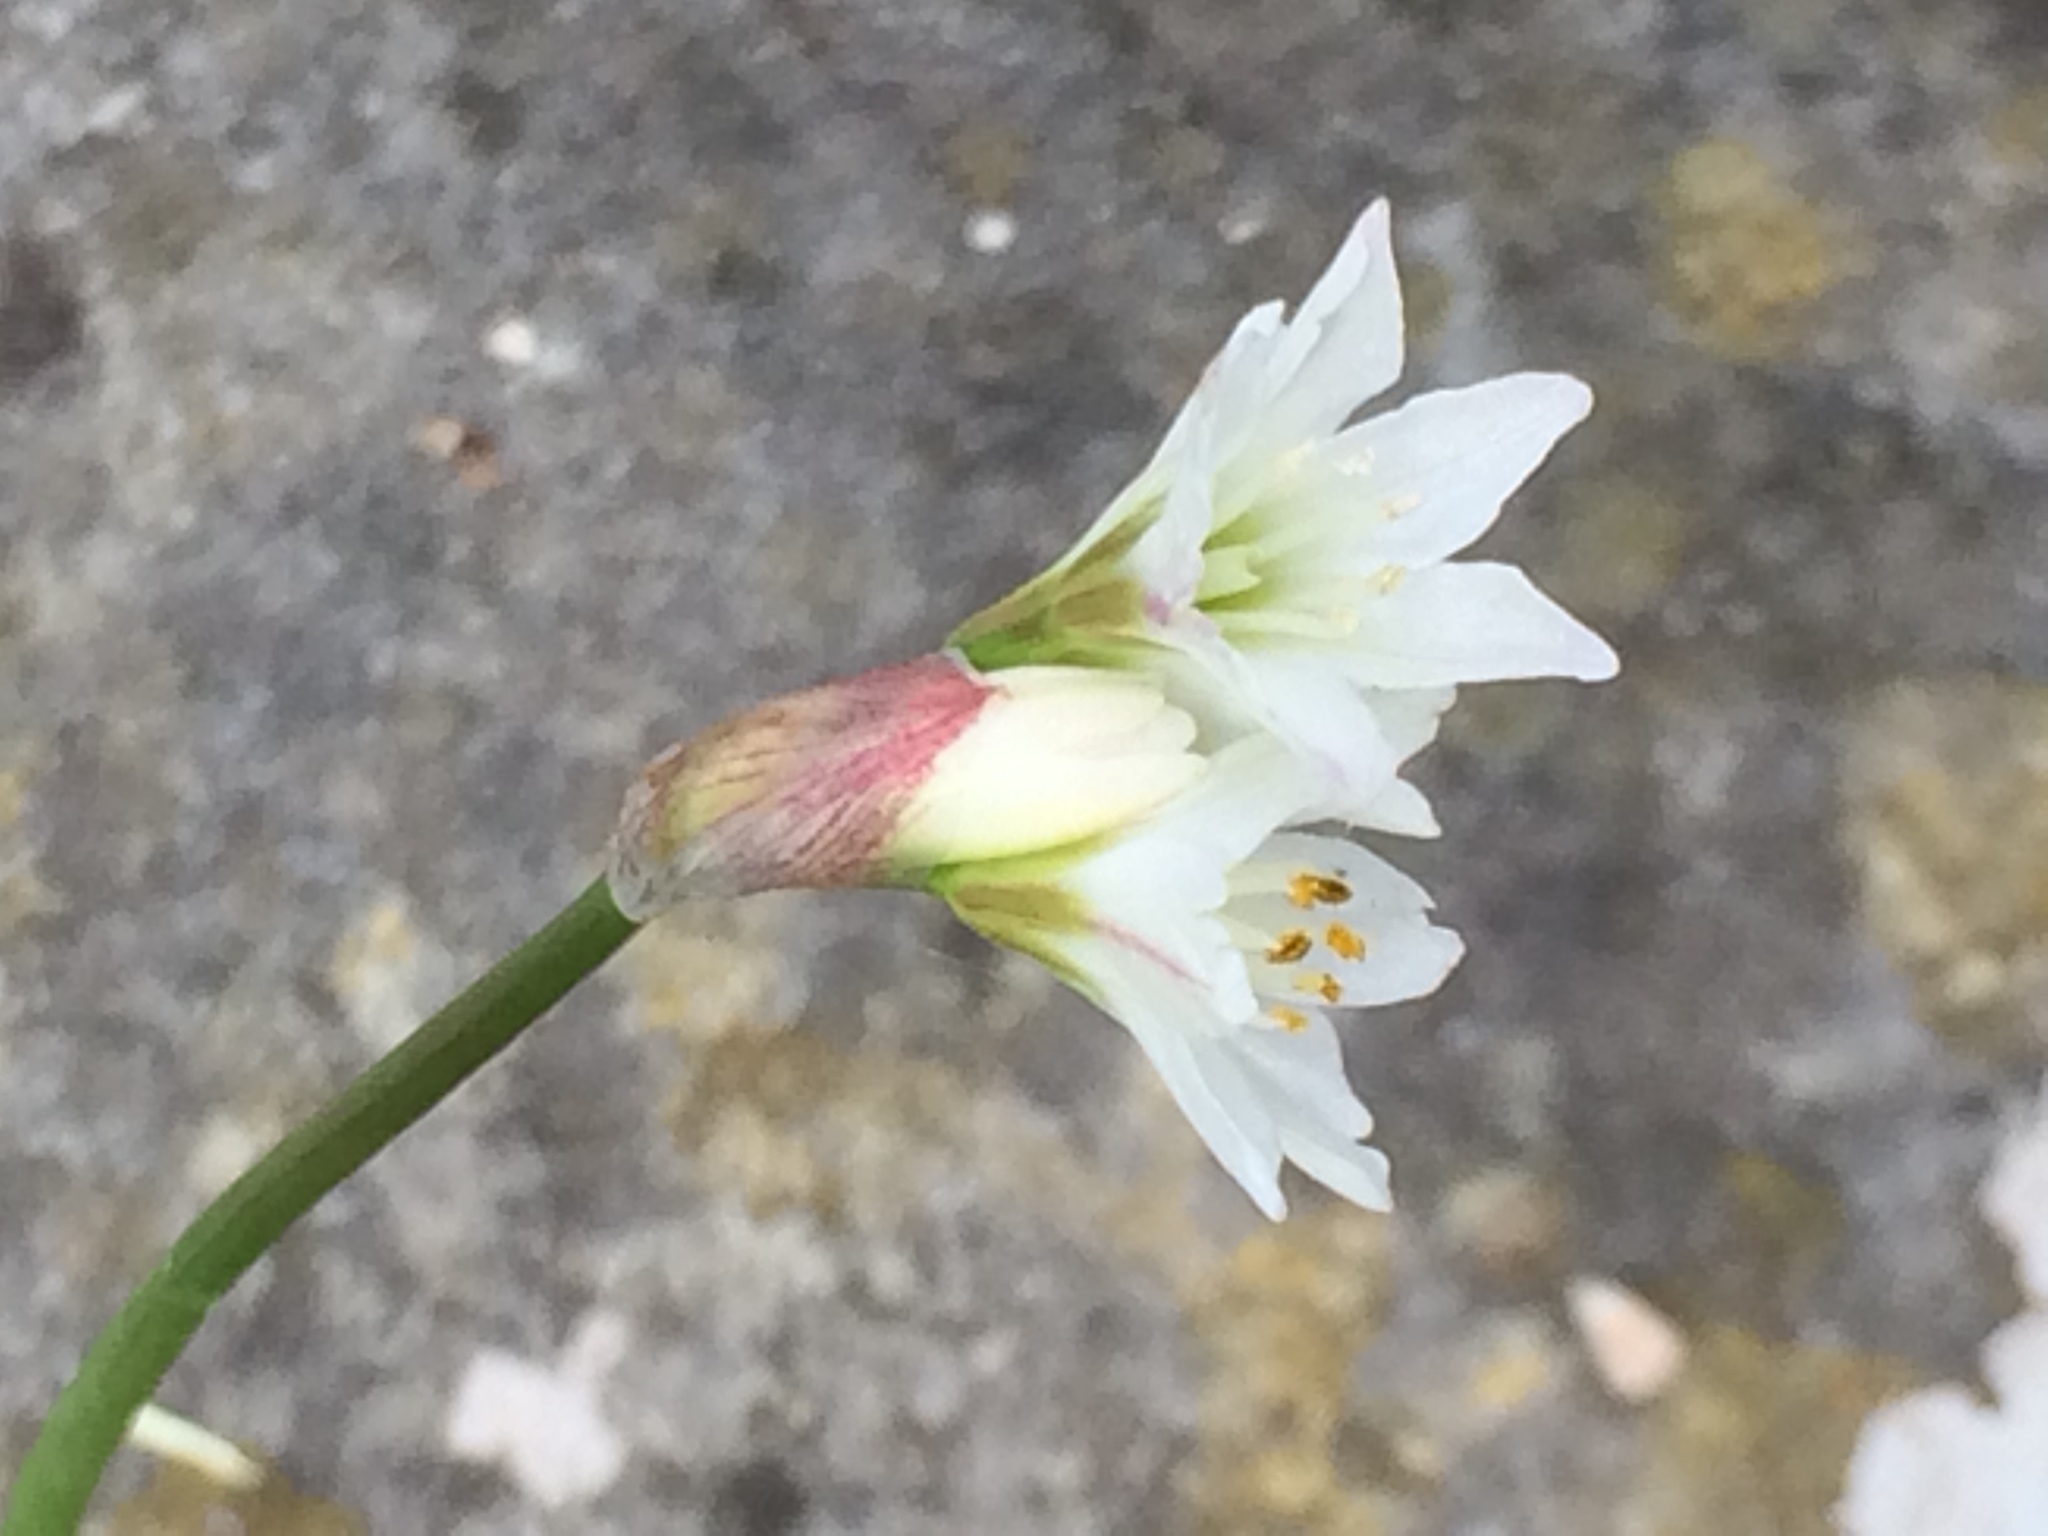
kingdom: Plantae
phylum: Tracheophyta
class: Liliopsida
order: Asparagales
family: Amaryllidaceae
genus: Nothoscordum
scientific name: Nothoscordum gracile
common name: Slender false garlic
